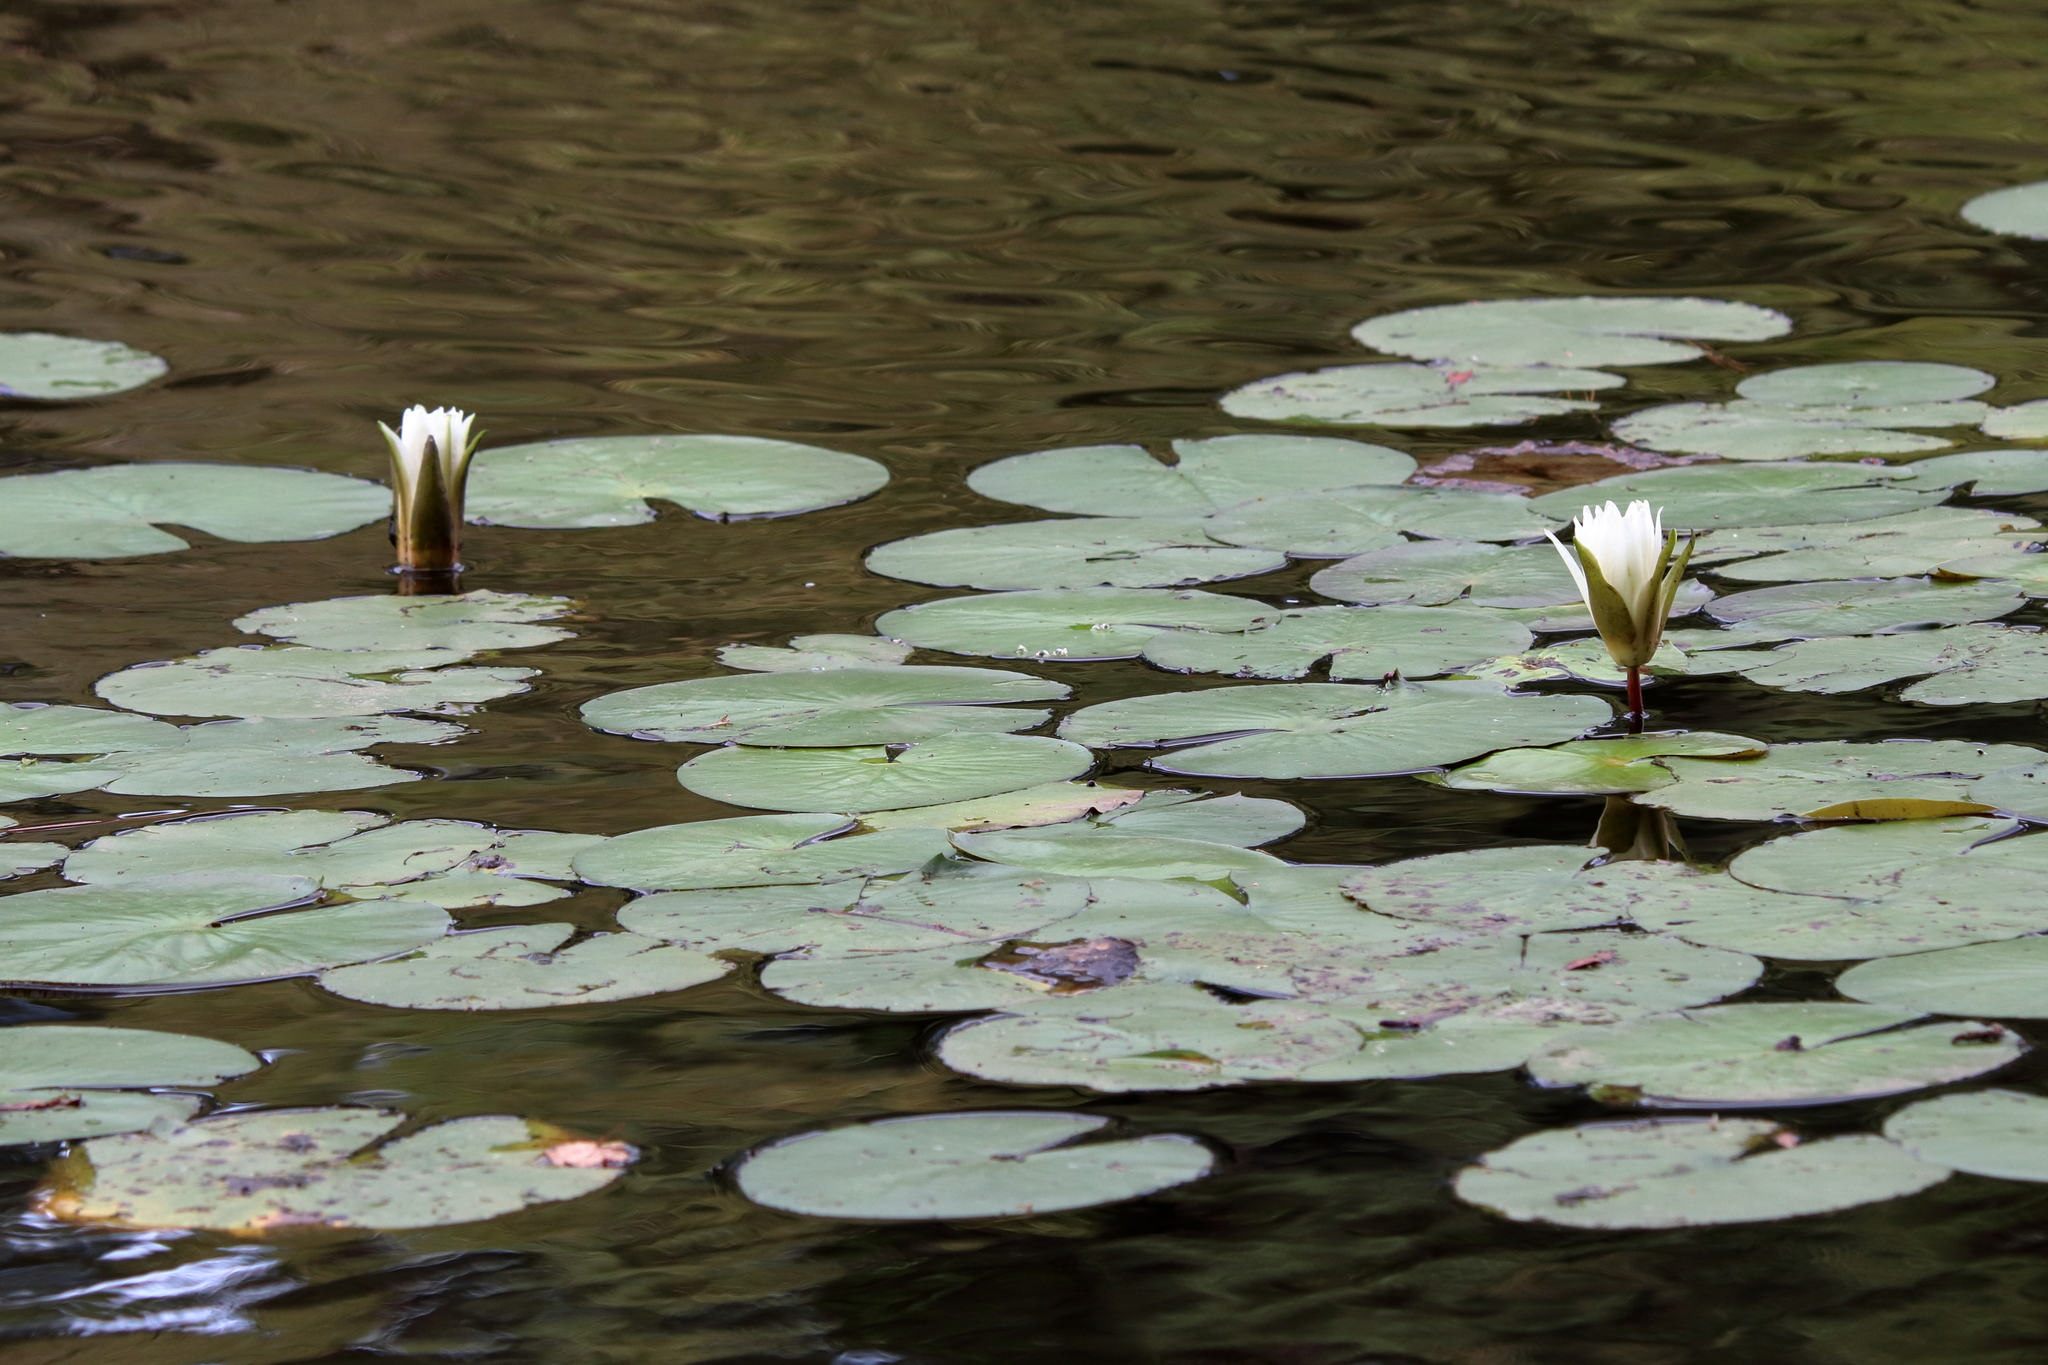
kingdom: Plantae
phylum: Tracheophyta
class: Magnoliopsida
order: Nymphaeales
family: Nymphaeaceae
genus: Nymphaea
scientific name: Nymphaea odorata
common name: Fragrant water-lily
